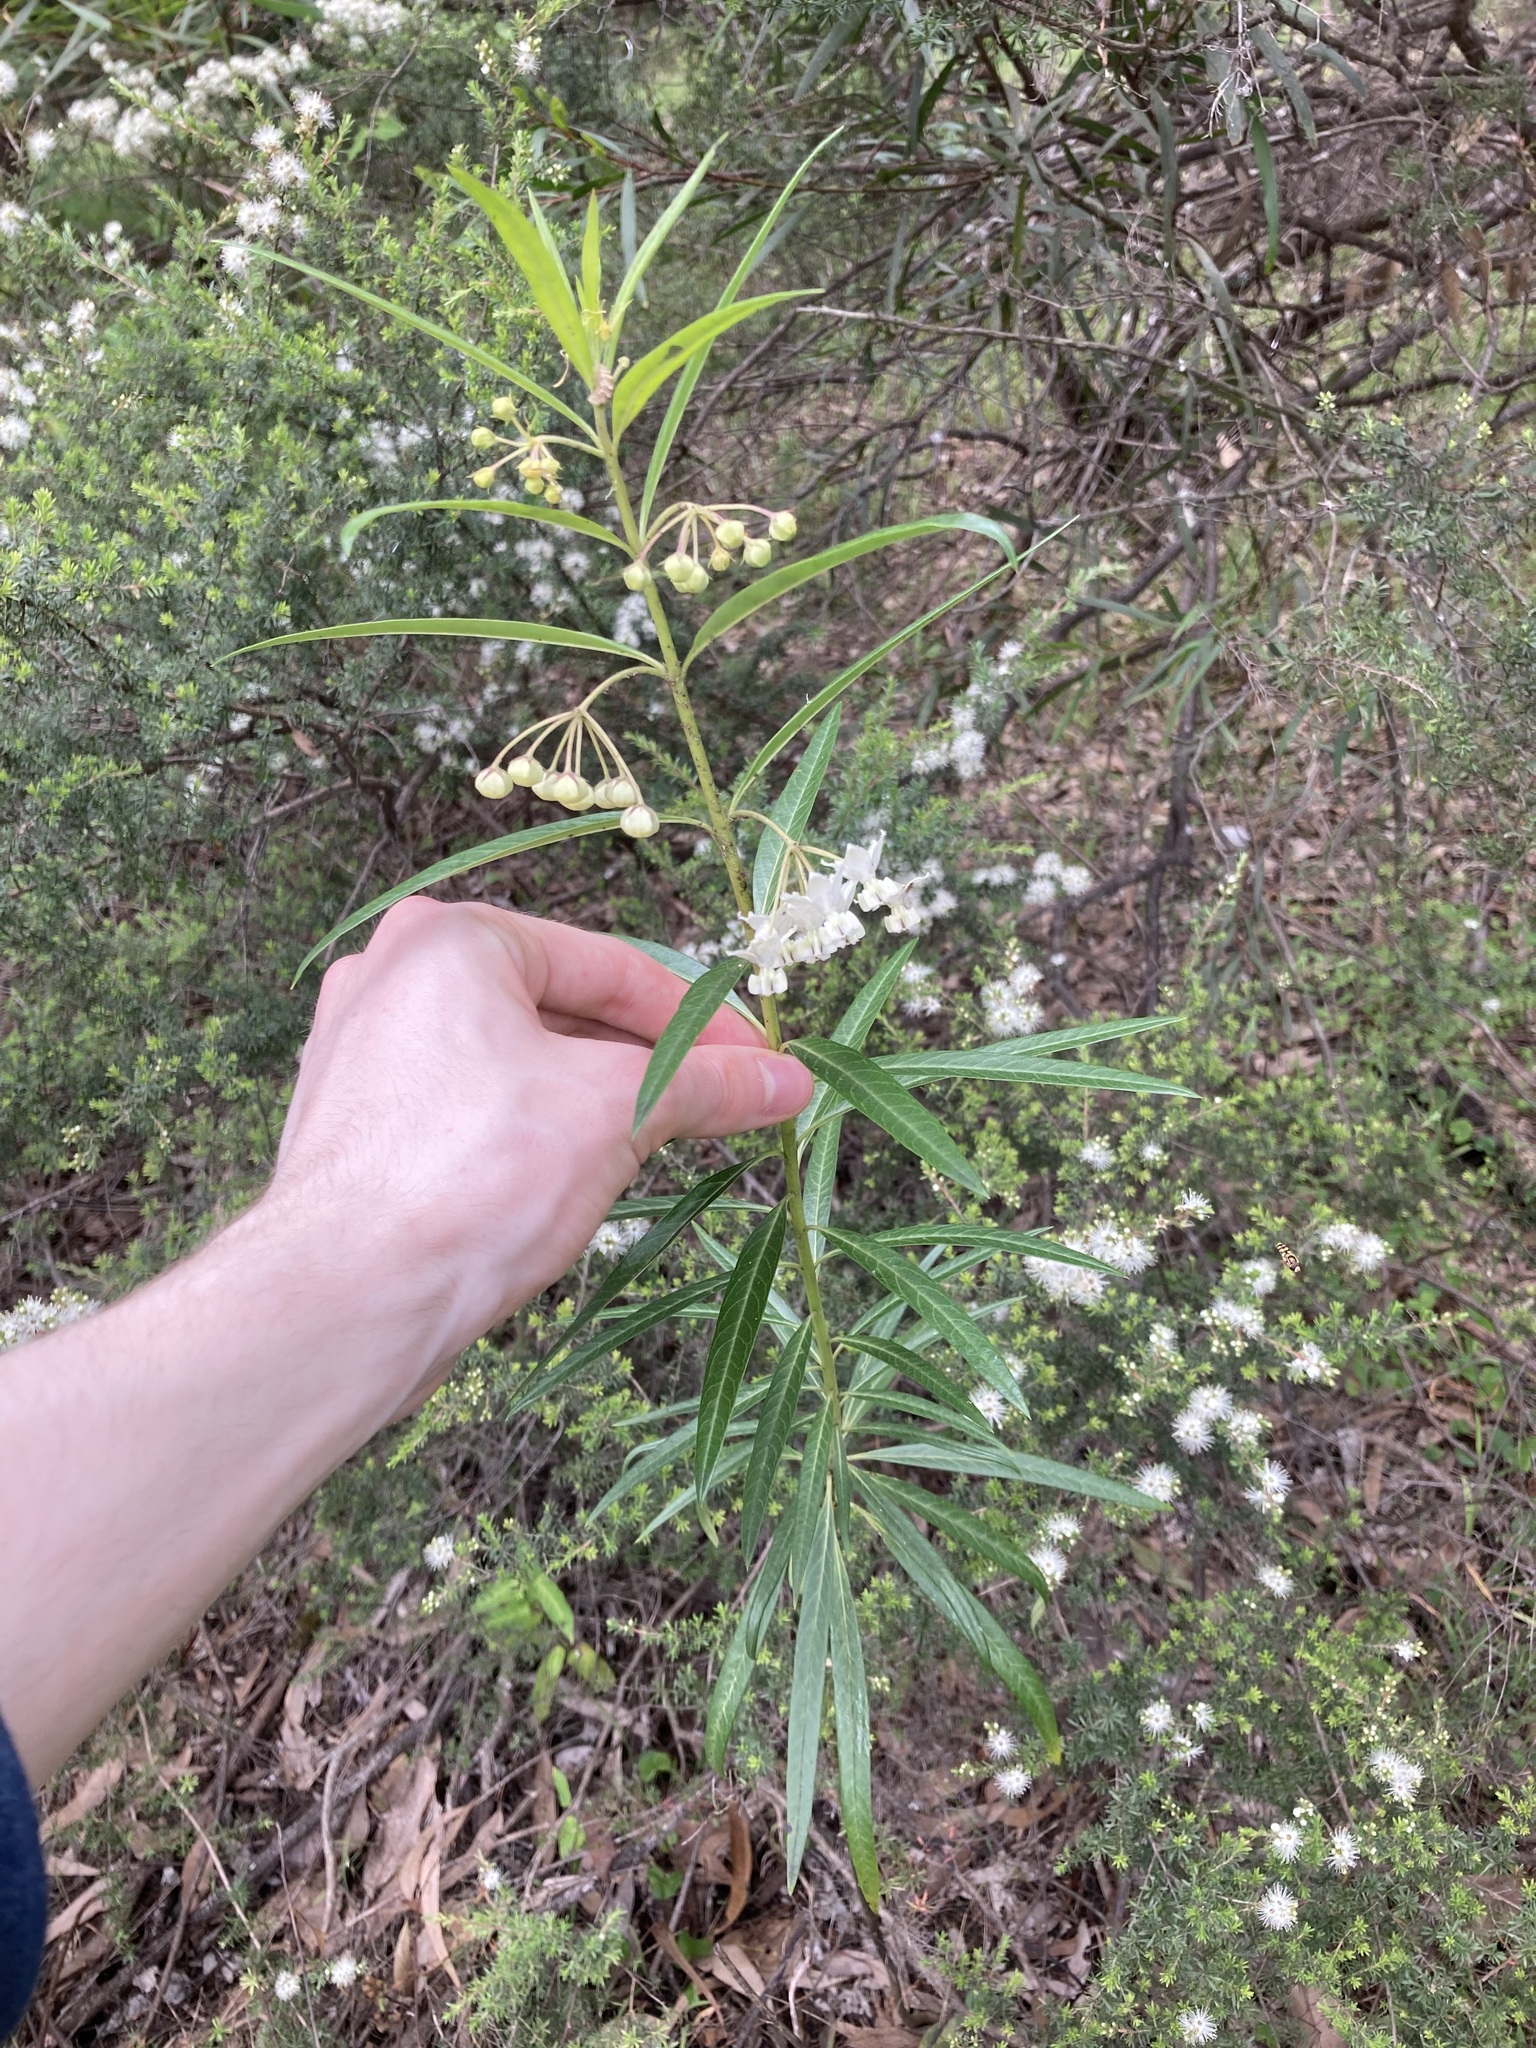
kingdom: Plantae
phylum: Tracheophyta
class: Magnoliopsida
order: Gentianales
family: Apocynaceae
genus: Gomphocarpus
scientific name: Gomphocarpus physocarpus
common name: Balloon cotton bush
